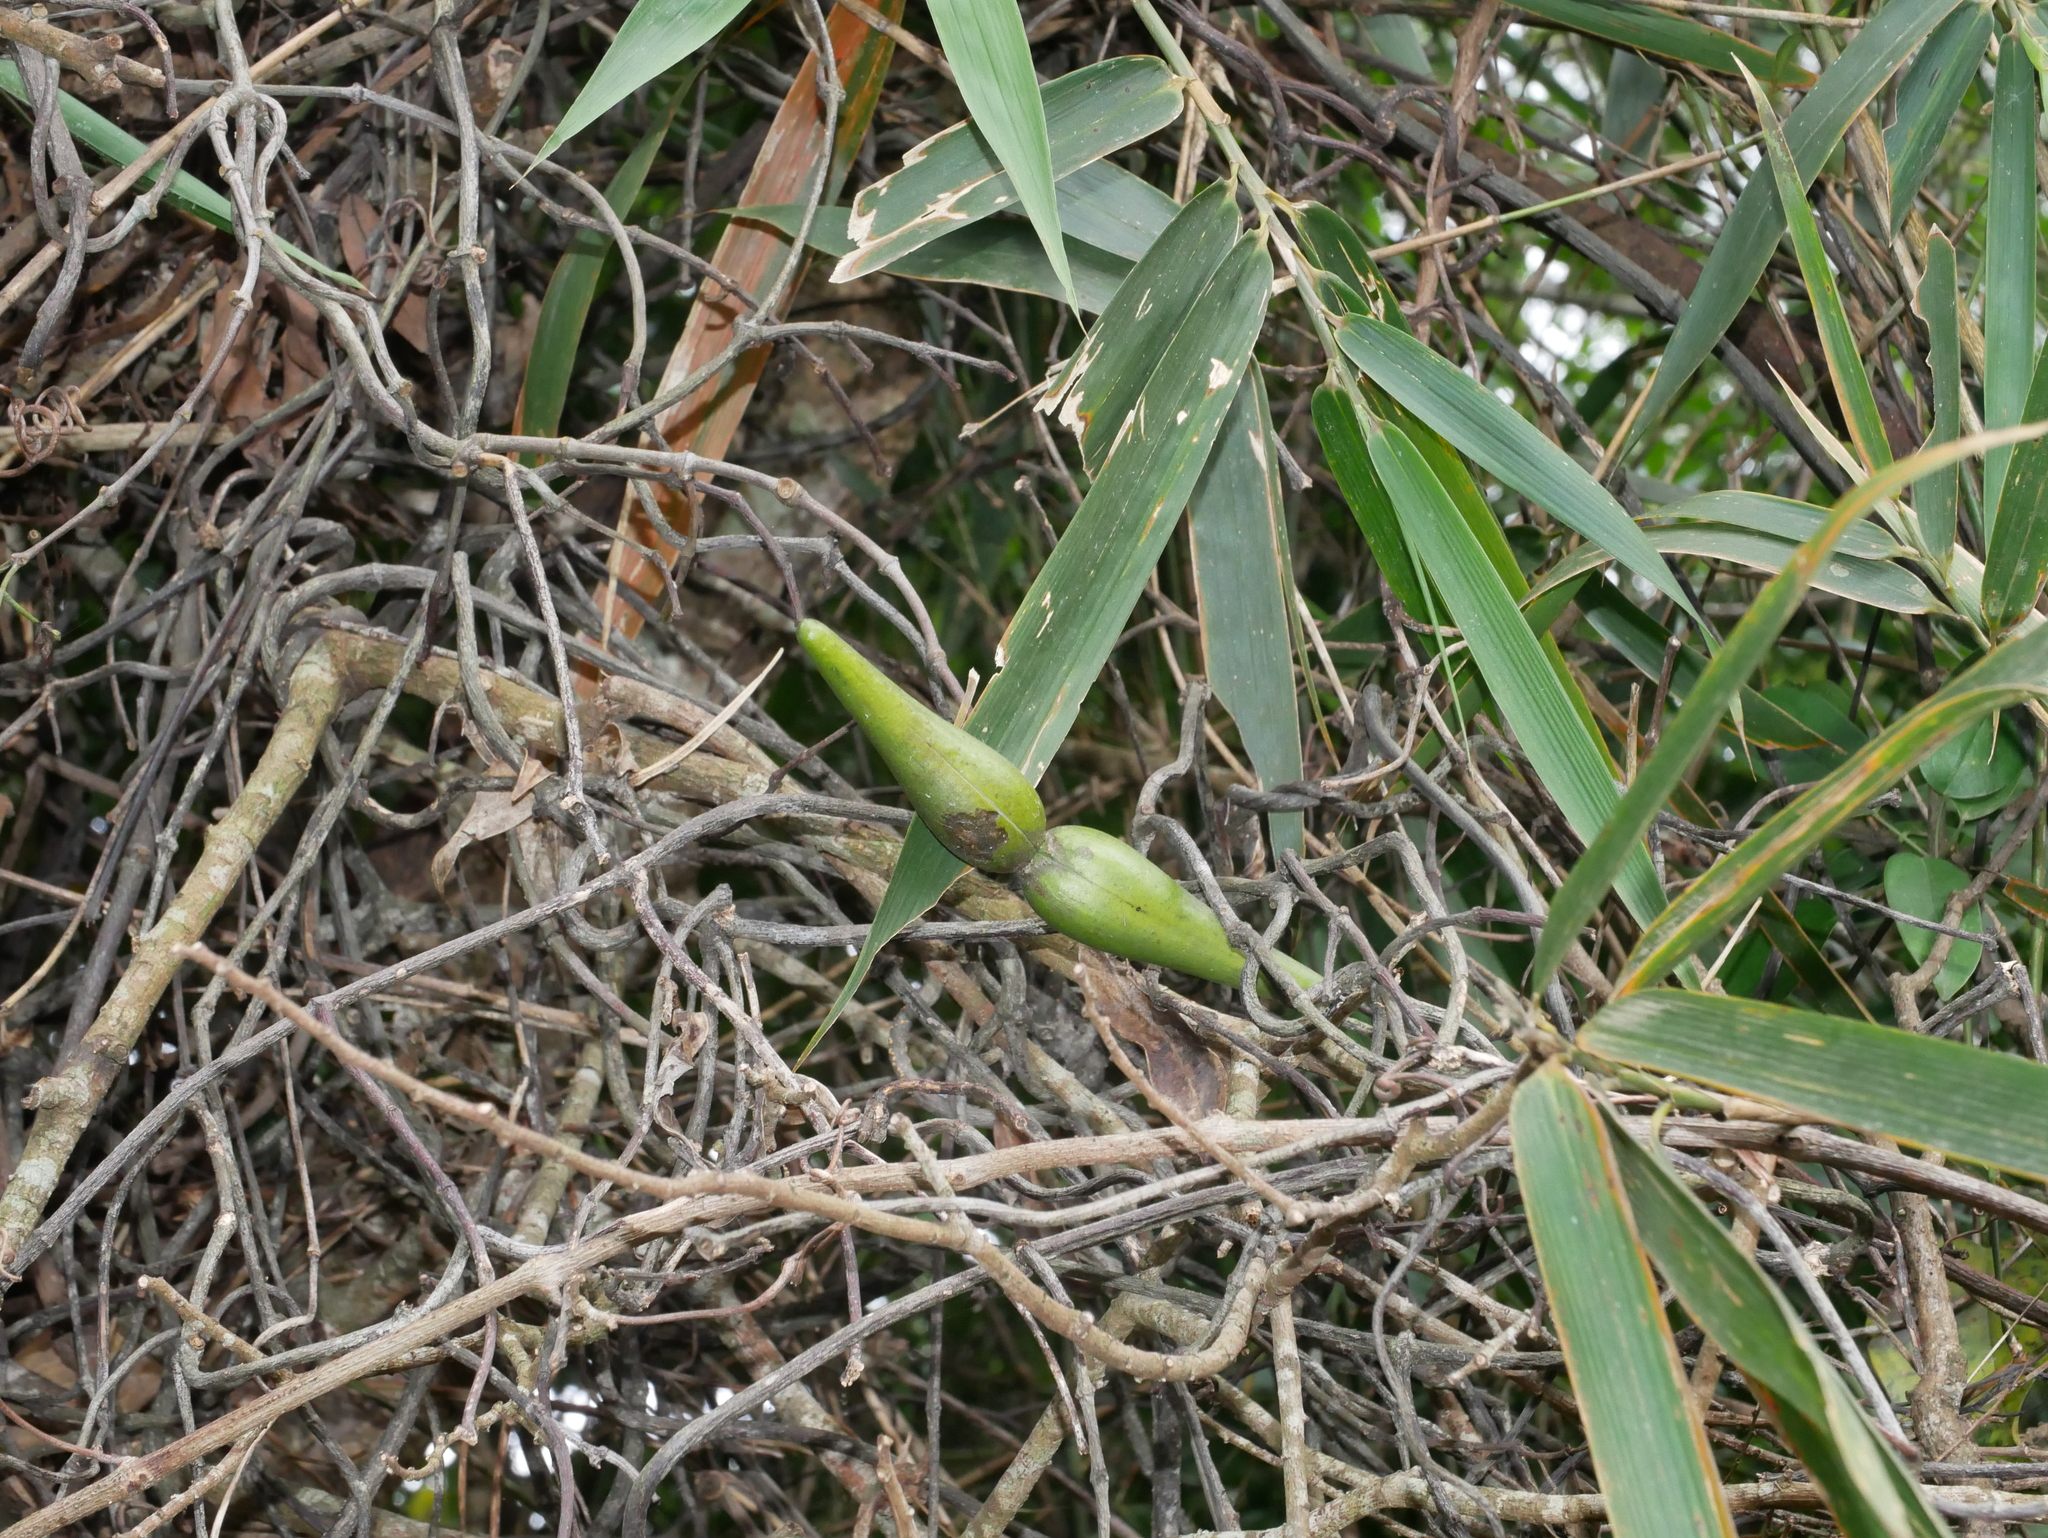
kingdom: Plantae
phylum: Tracheophyta
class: Magnoliopsida
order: Gentianales
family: Apocynaceae
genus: Anodendron
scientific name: Anodendron affine
